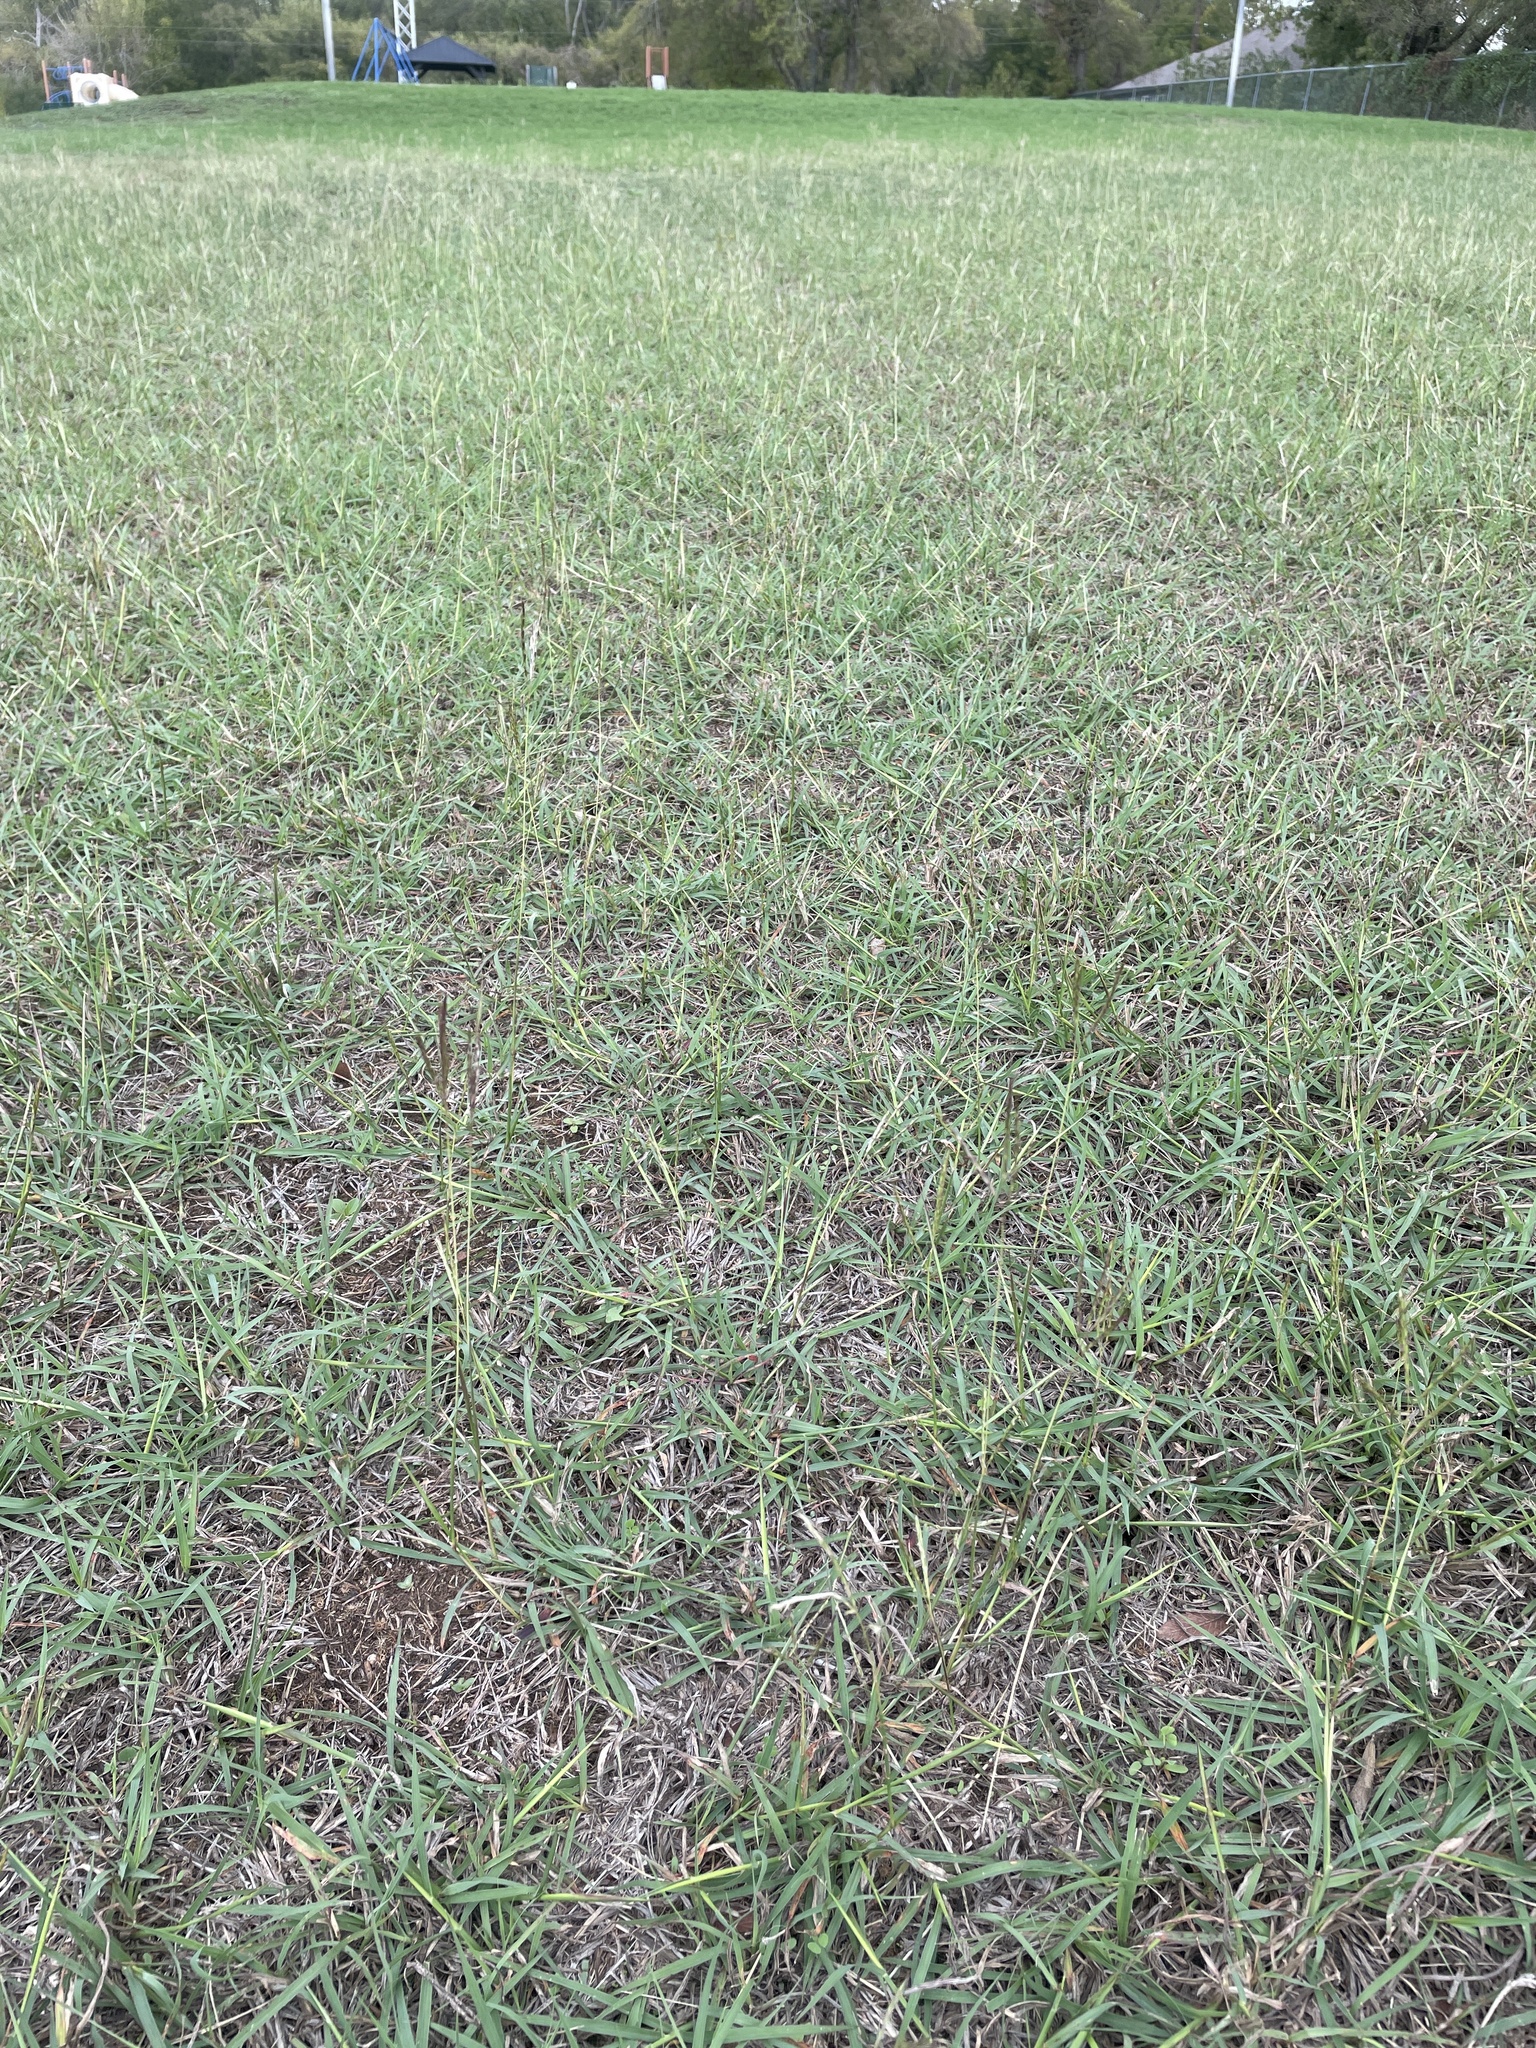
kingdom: Plantae
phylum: Tracheophyta
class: Liliopsida
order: Poales
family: Poaceae
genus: Bothriochloa
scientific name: Bothriochloa ischaemum
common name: Yellow bluestem
